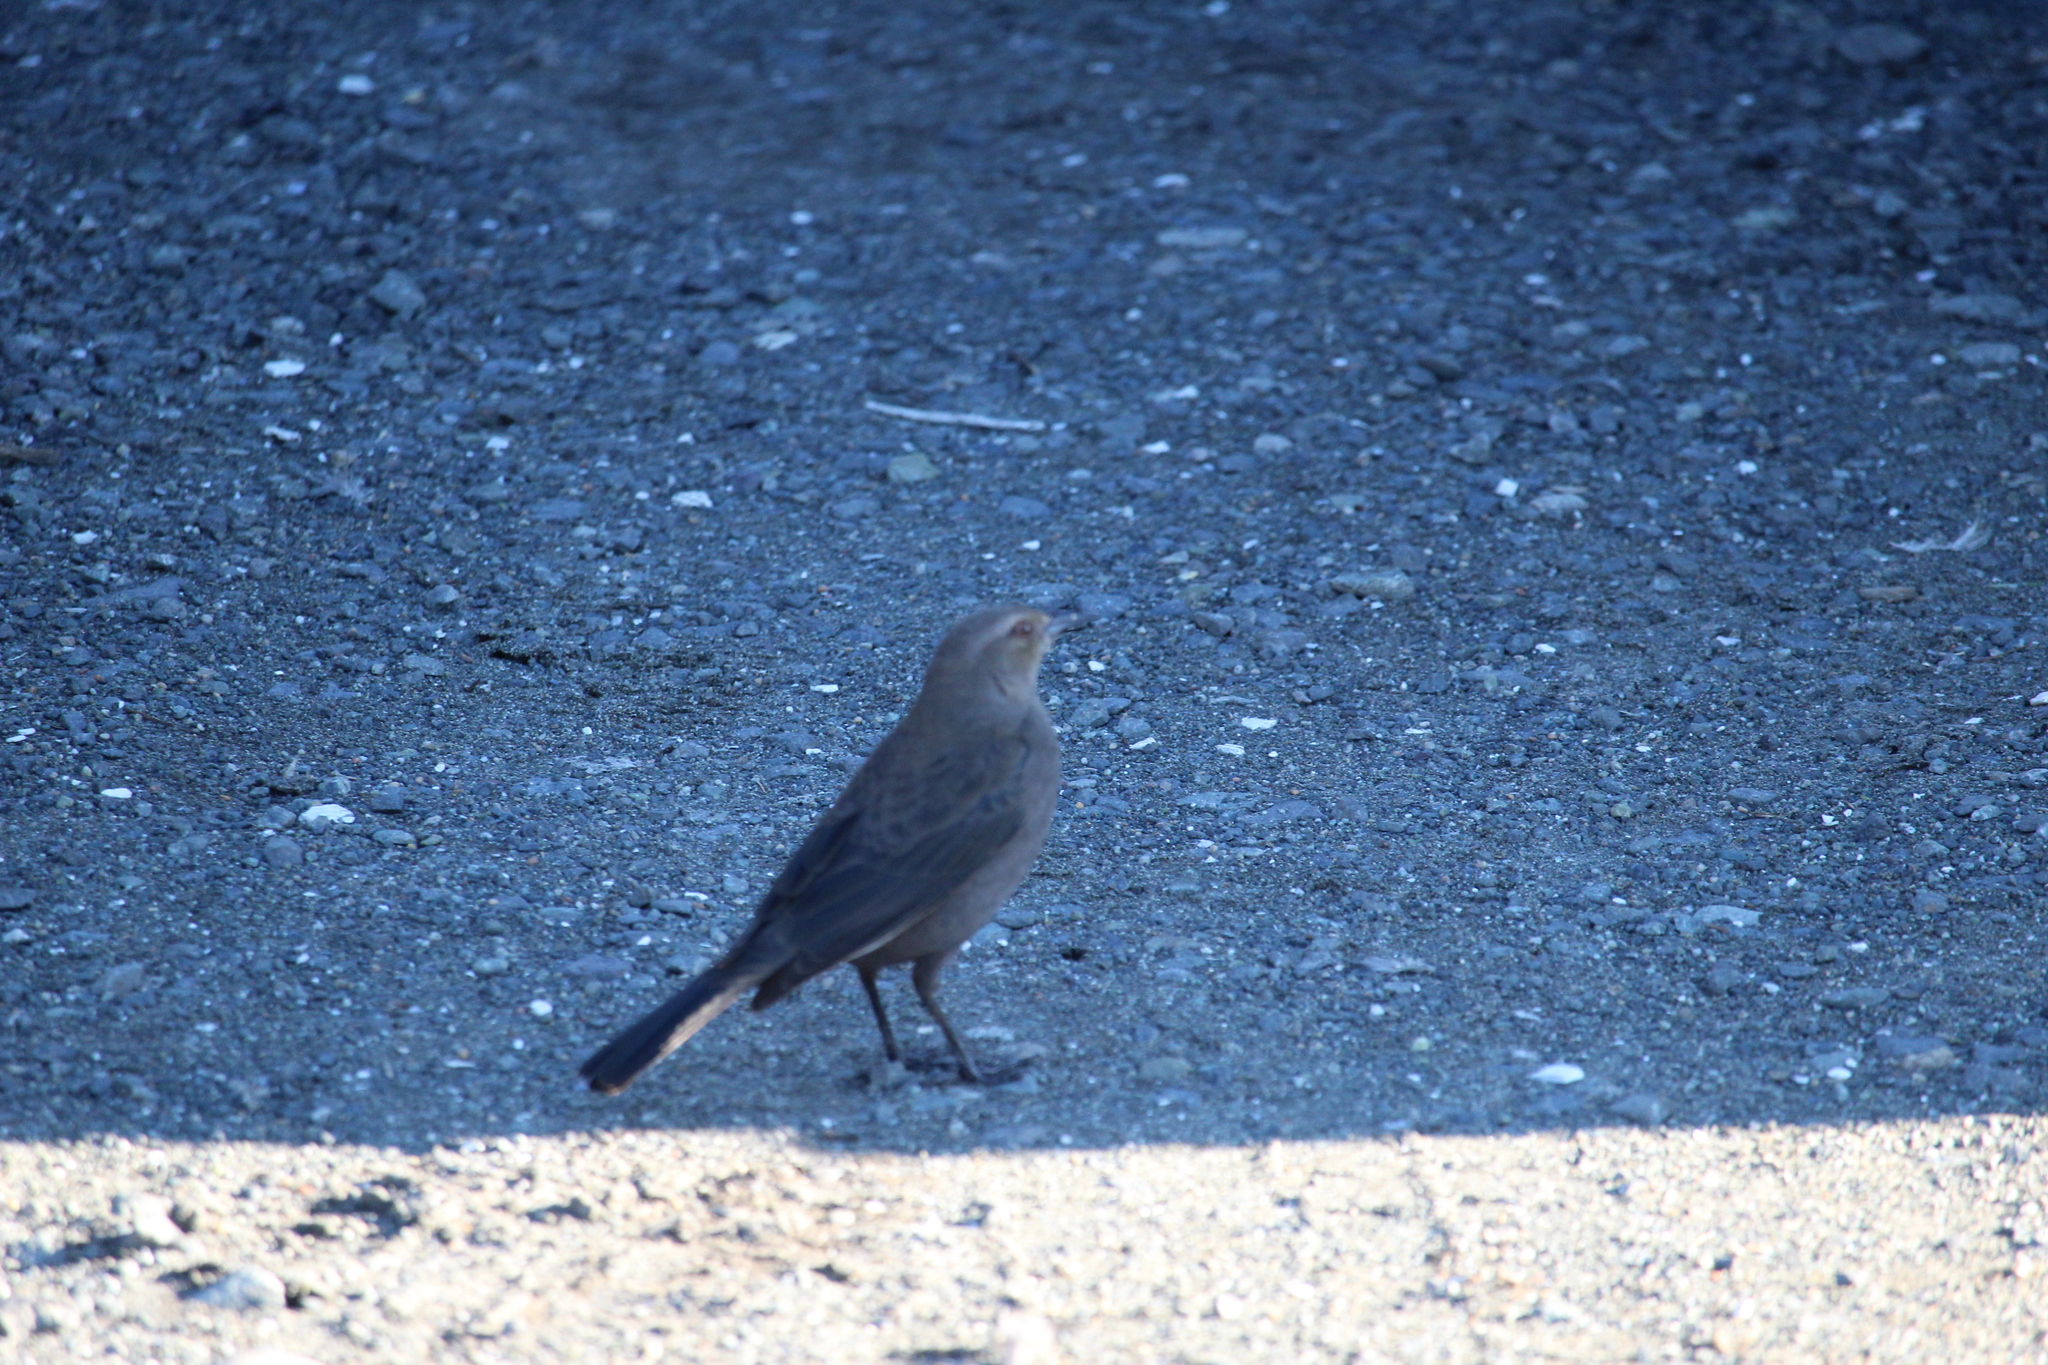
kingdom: Animalia
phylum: Chordata
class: Aves
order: Passeriformes
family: Icteridae
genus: Euphagus
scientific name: Euphagus cyanocephalus
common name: Brewer's blackbird
